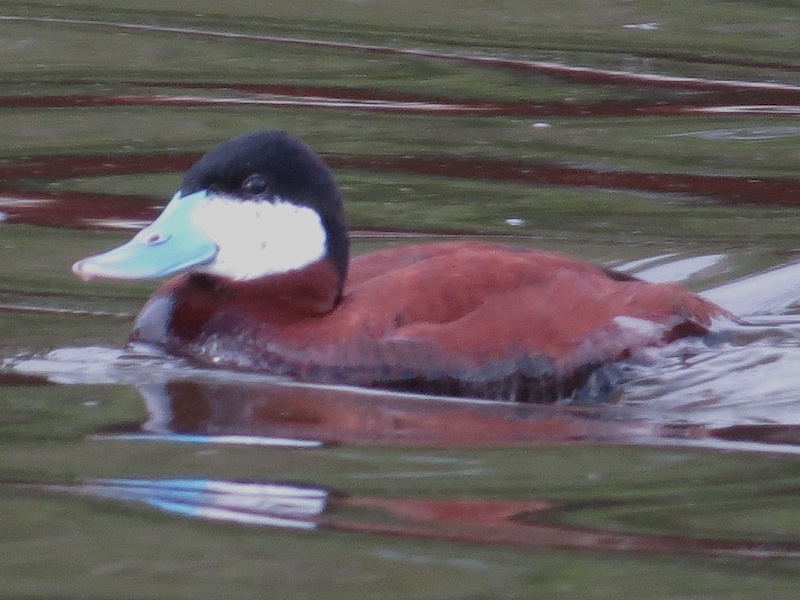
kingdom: Animalia
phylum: Chordata
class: Aves
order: Anseriformes
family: Anatidae
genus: Oxyura
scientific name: Oxyura jamaicensis
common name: Ruddy duck
